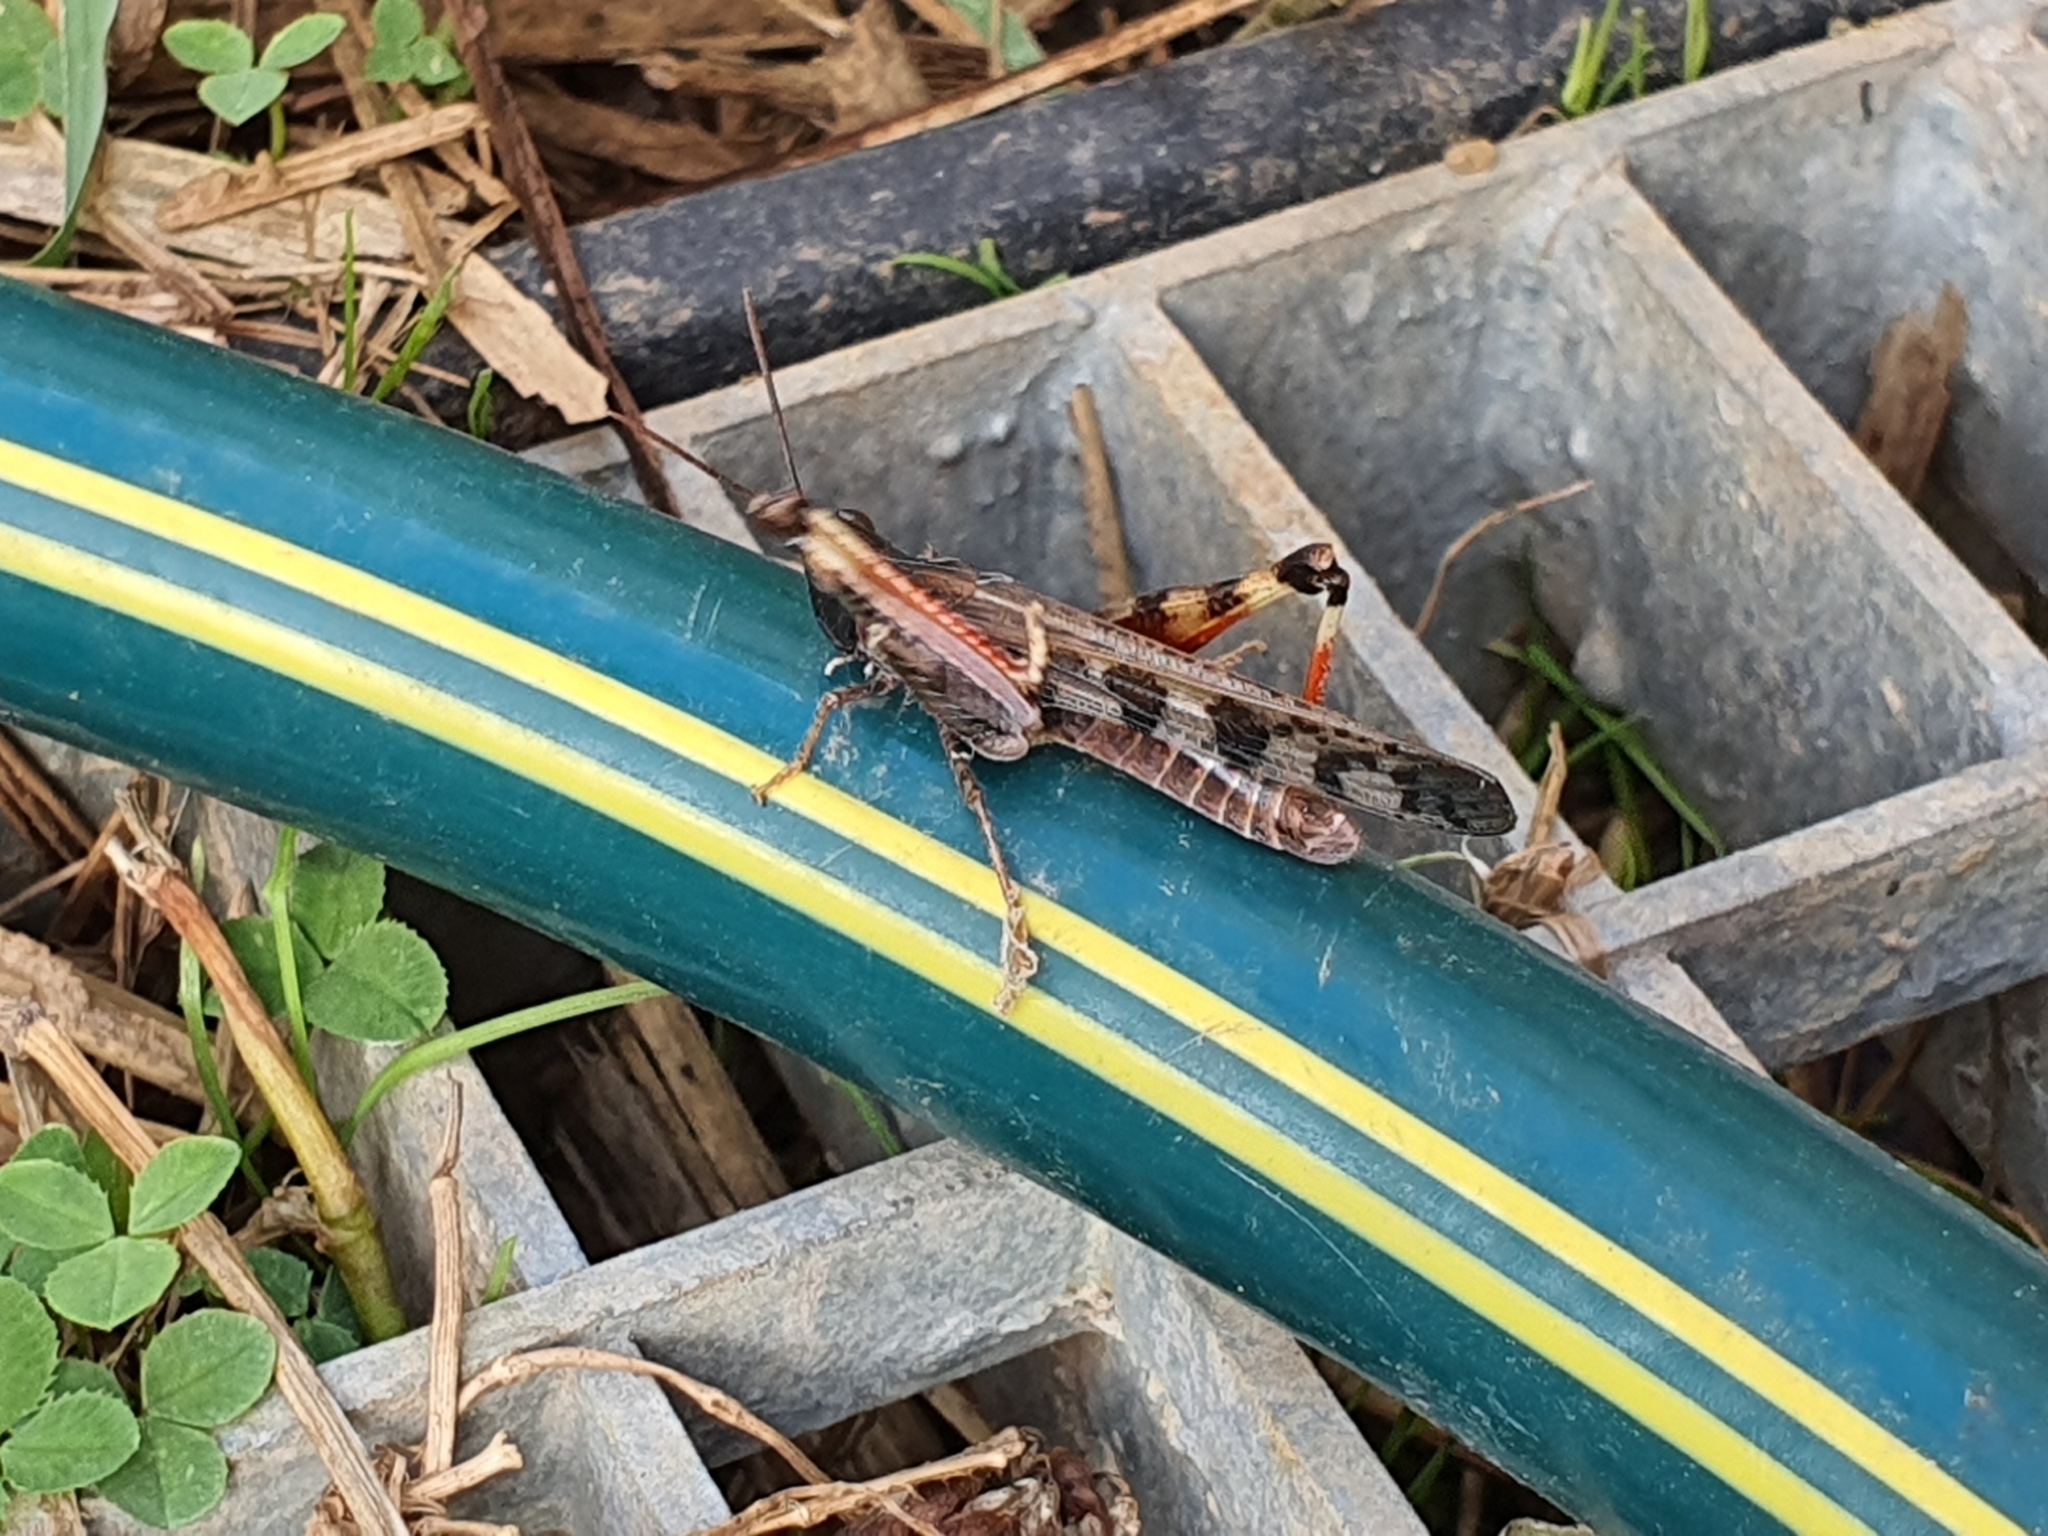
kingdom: Animalia
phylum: Arthropoda
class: Insecta
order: Orthoptera
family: Acrididae
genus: Chortoicetes
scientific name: Chortoicetes terminifera
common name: Australian plague locust
